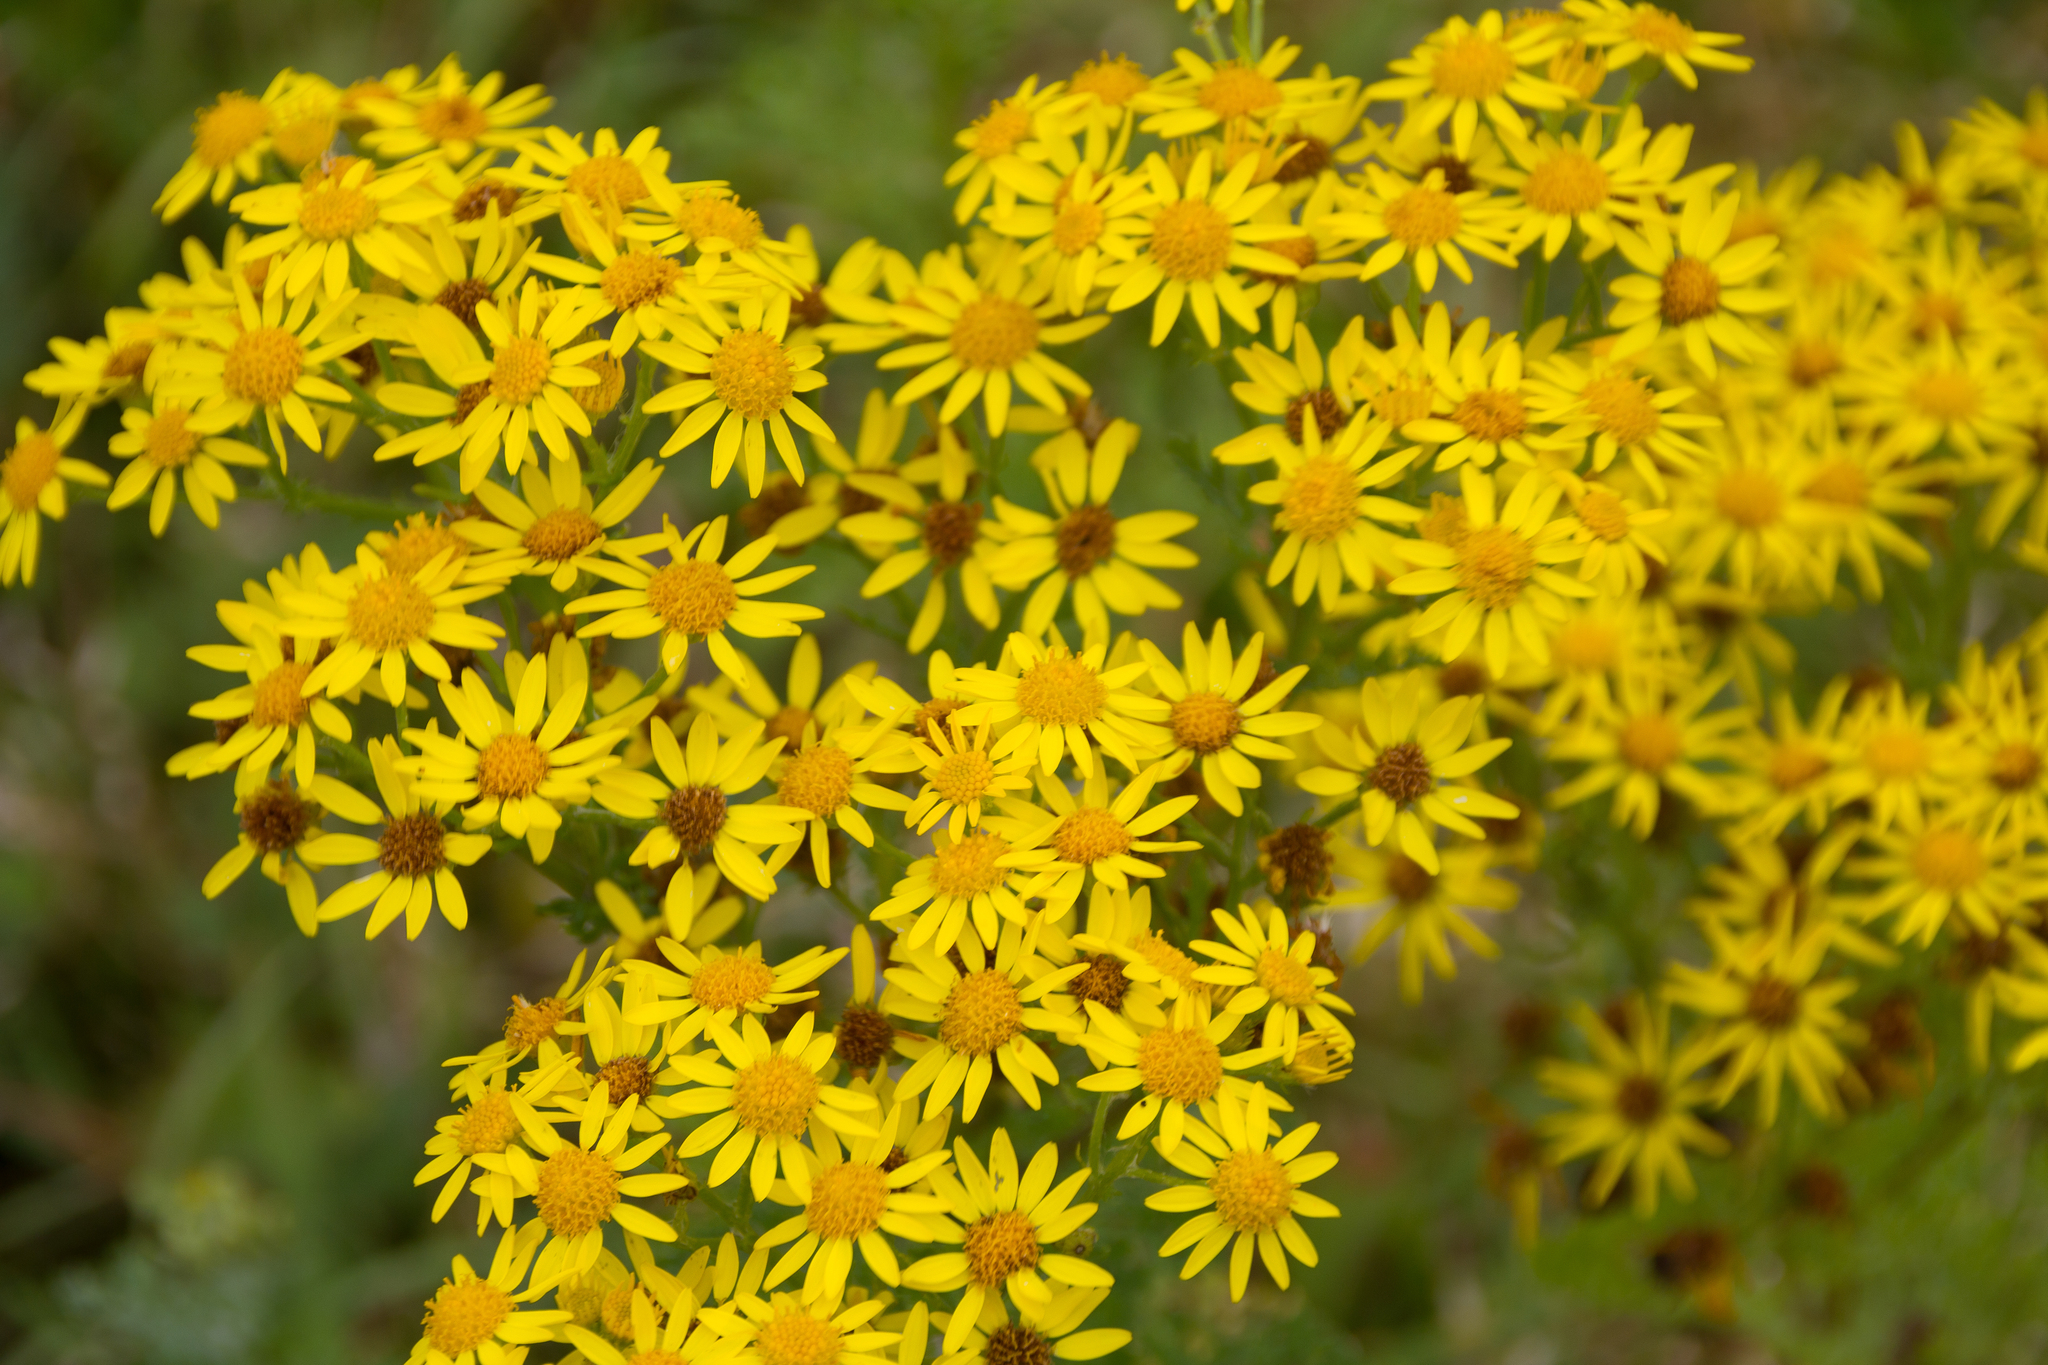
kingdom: Plantae
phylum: Tracheophyta
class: Magnoliopsida
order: Asterales
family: Asteraceae
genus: Jacobaea
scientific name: Jacobaea vulgaris
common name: Stinking willie
